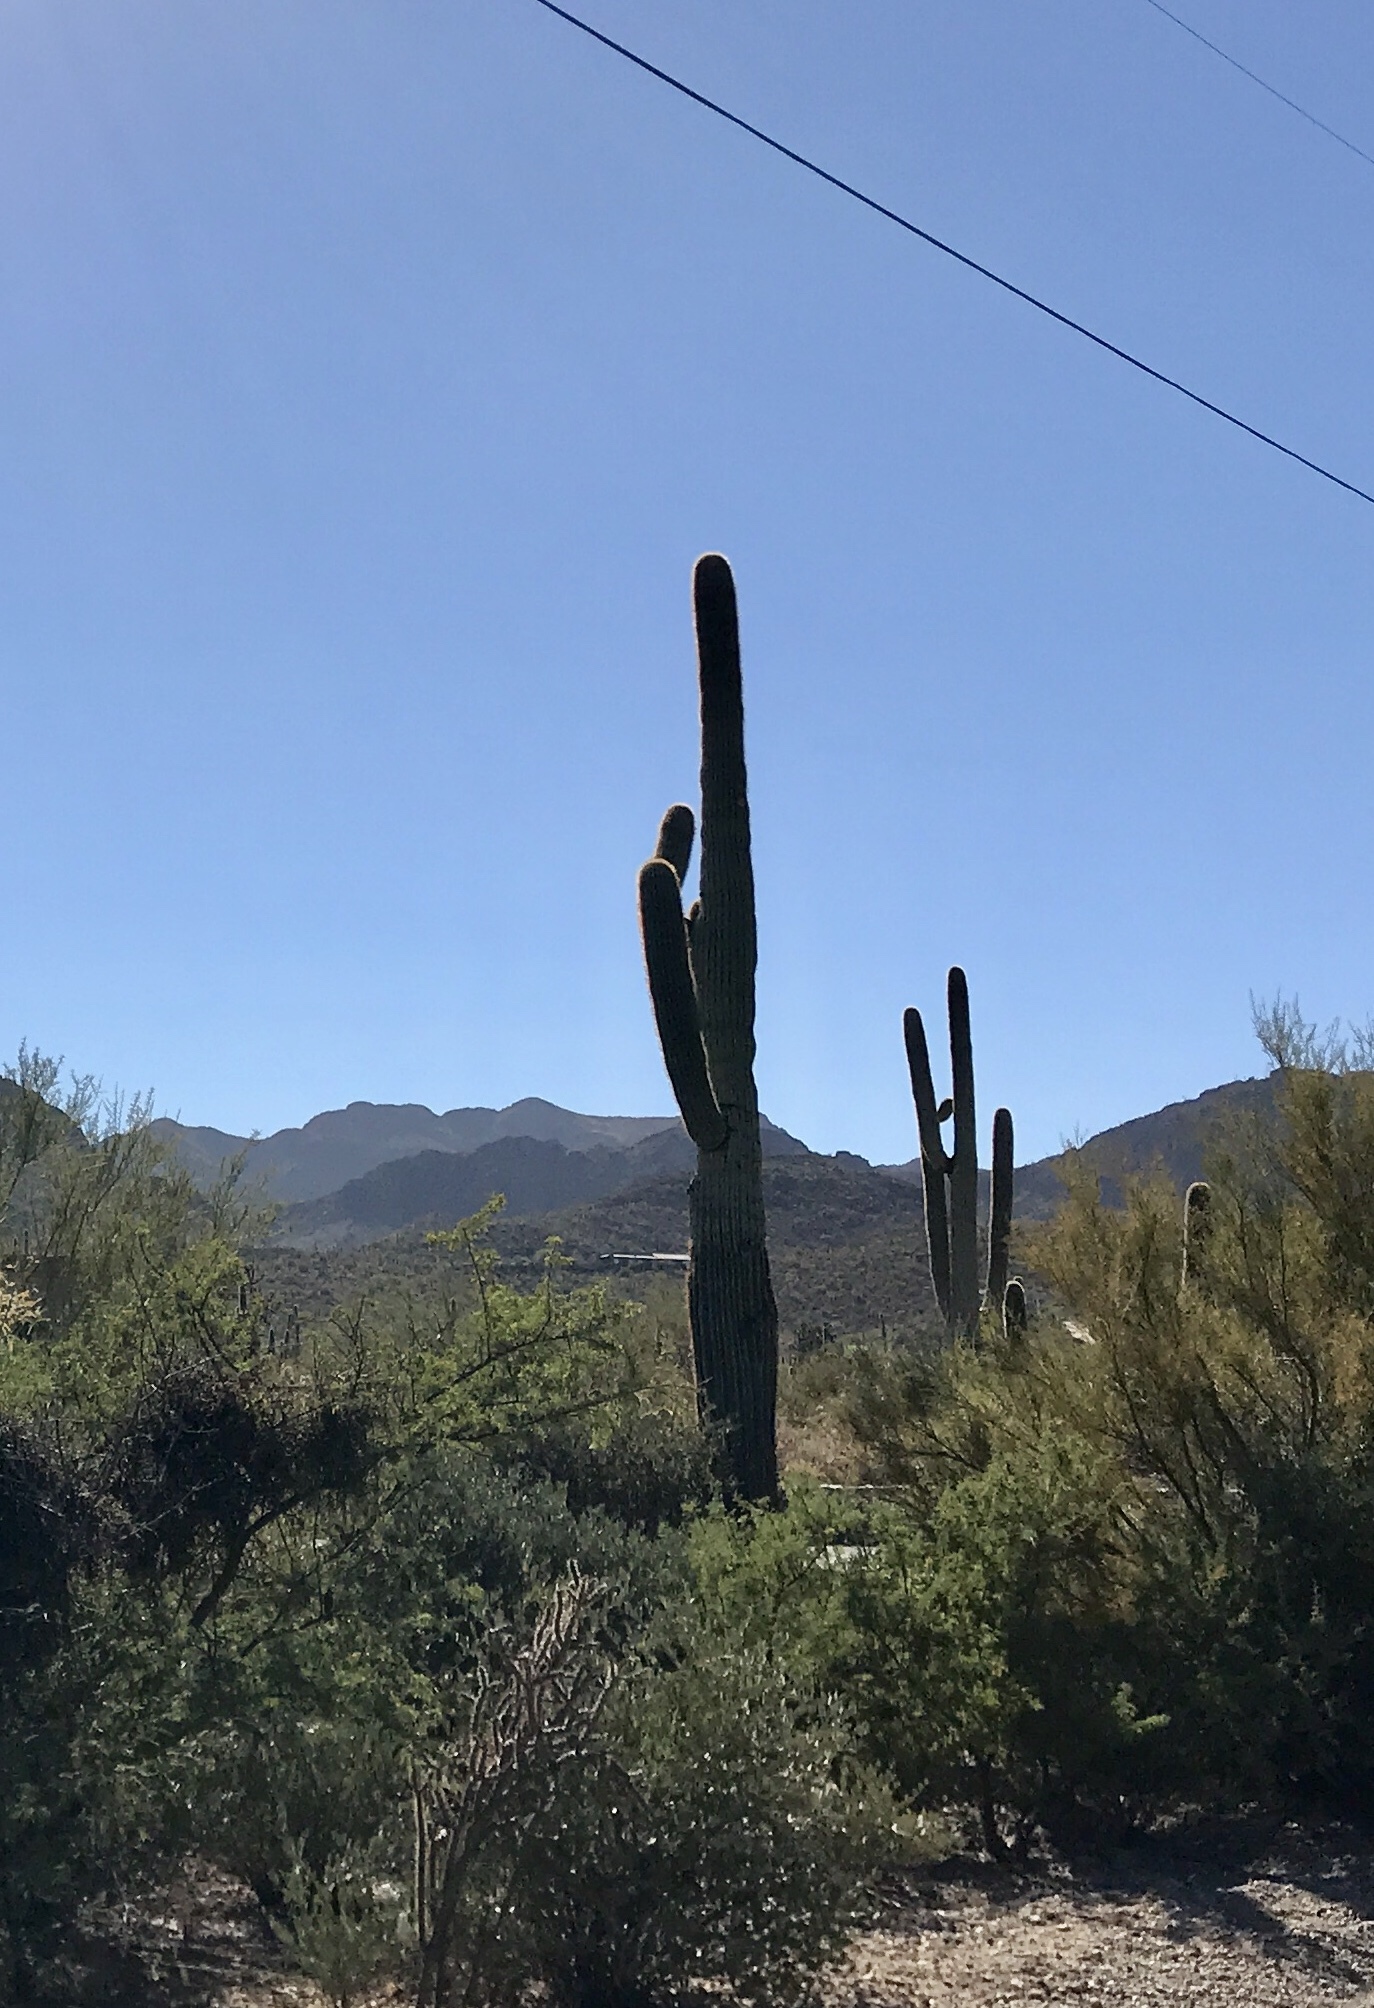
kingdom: Plantae
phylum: Tracheophyta
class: Magnoliopsida
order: Caryophyllales
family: Cactaceae
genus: Carnegiea
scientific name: Carnegiea gigantea
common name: Saguaro
